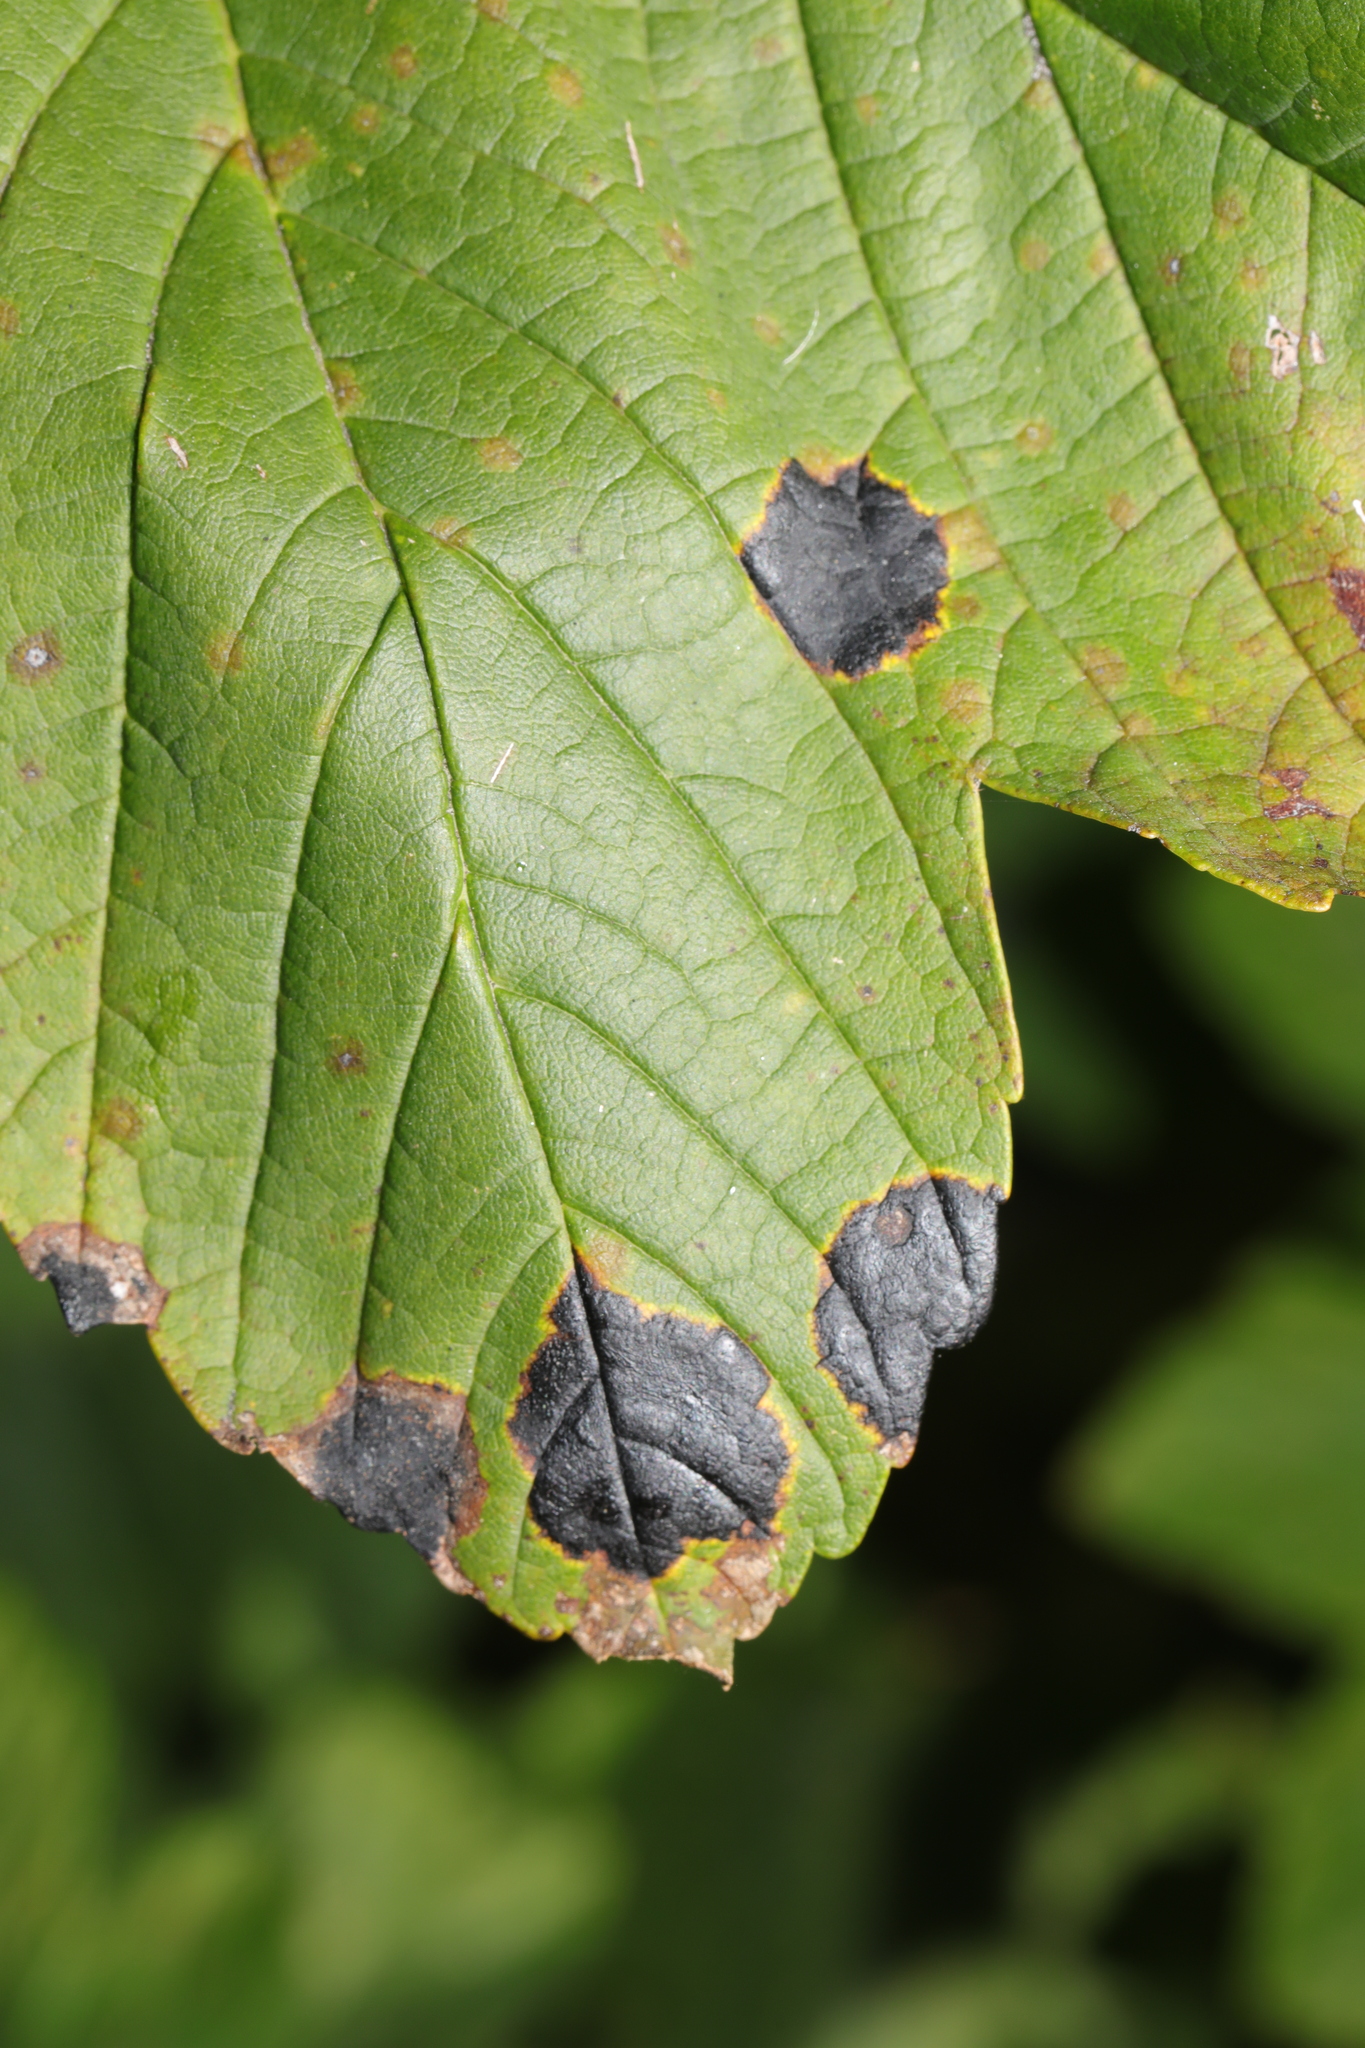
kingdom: Fungi
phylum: Ascomycota
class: Leotiomycetes
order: Rhytismatales
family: Rhytismataceae
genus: Rhytisma
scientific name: Rhytisma acerinum
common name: European tar spot
